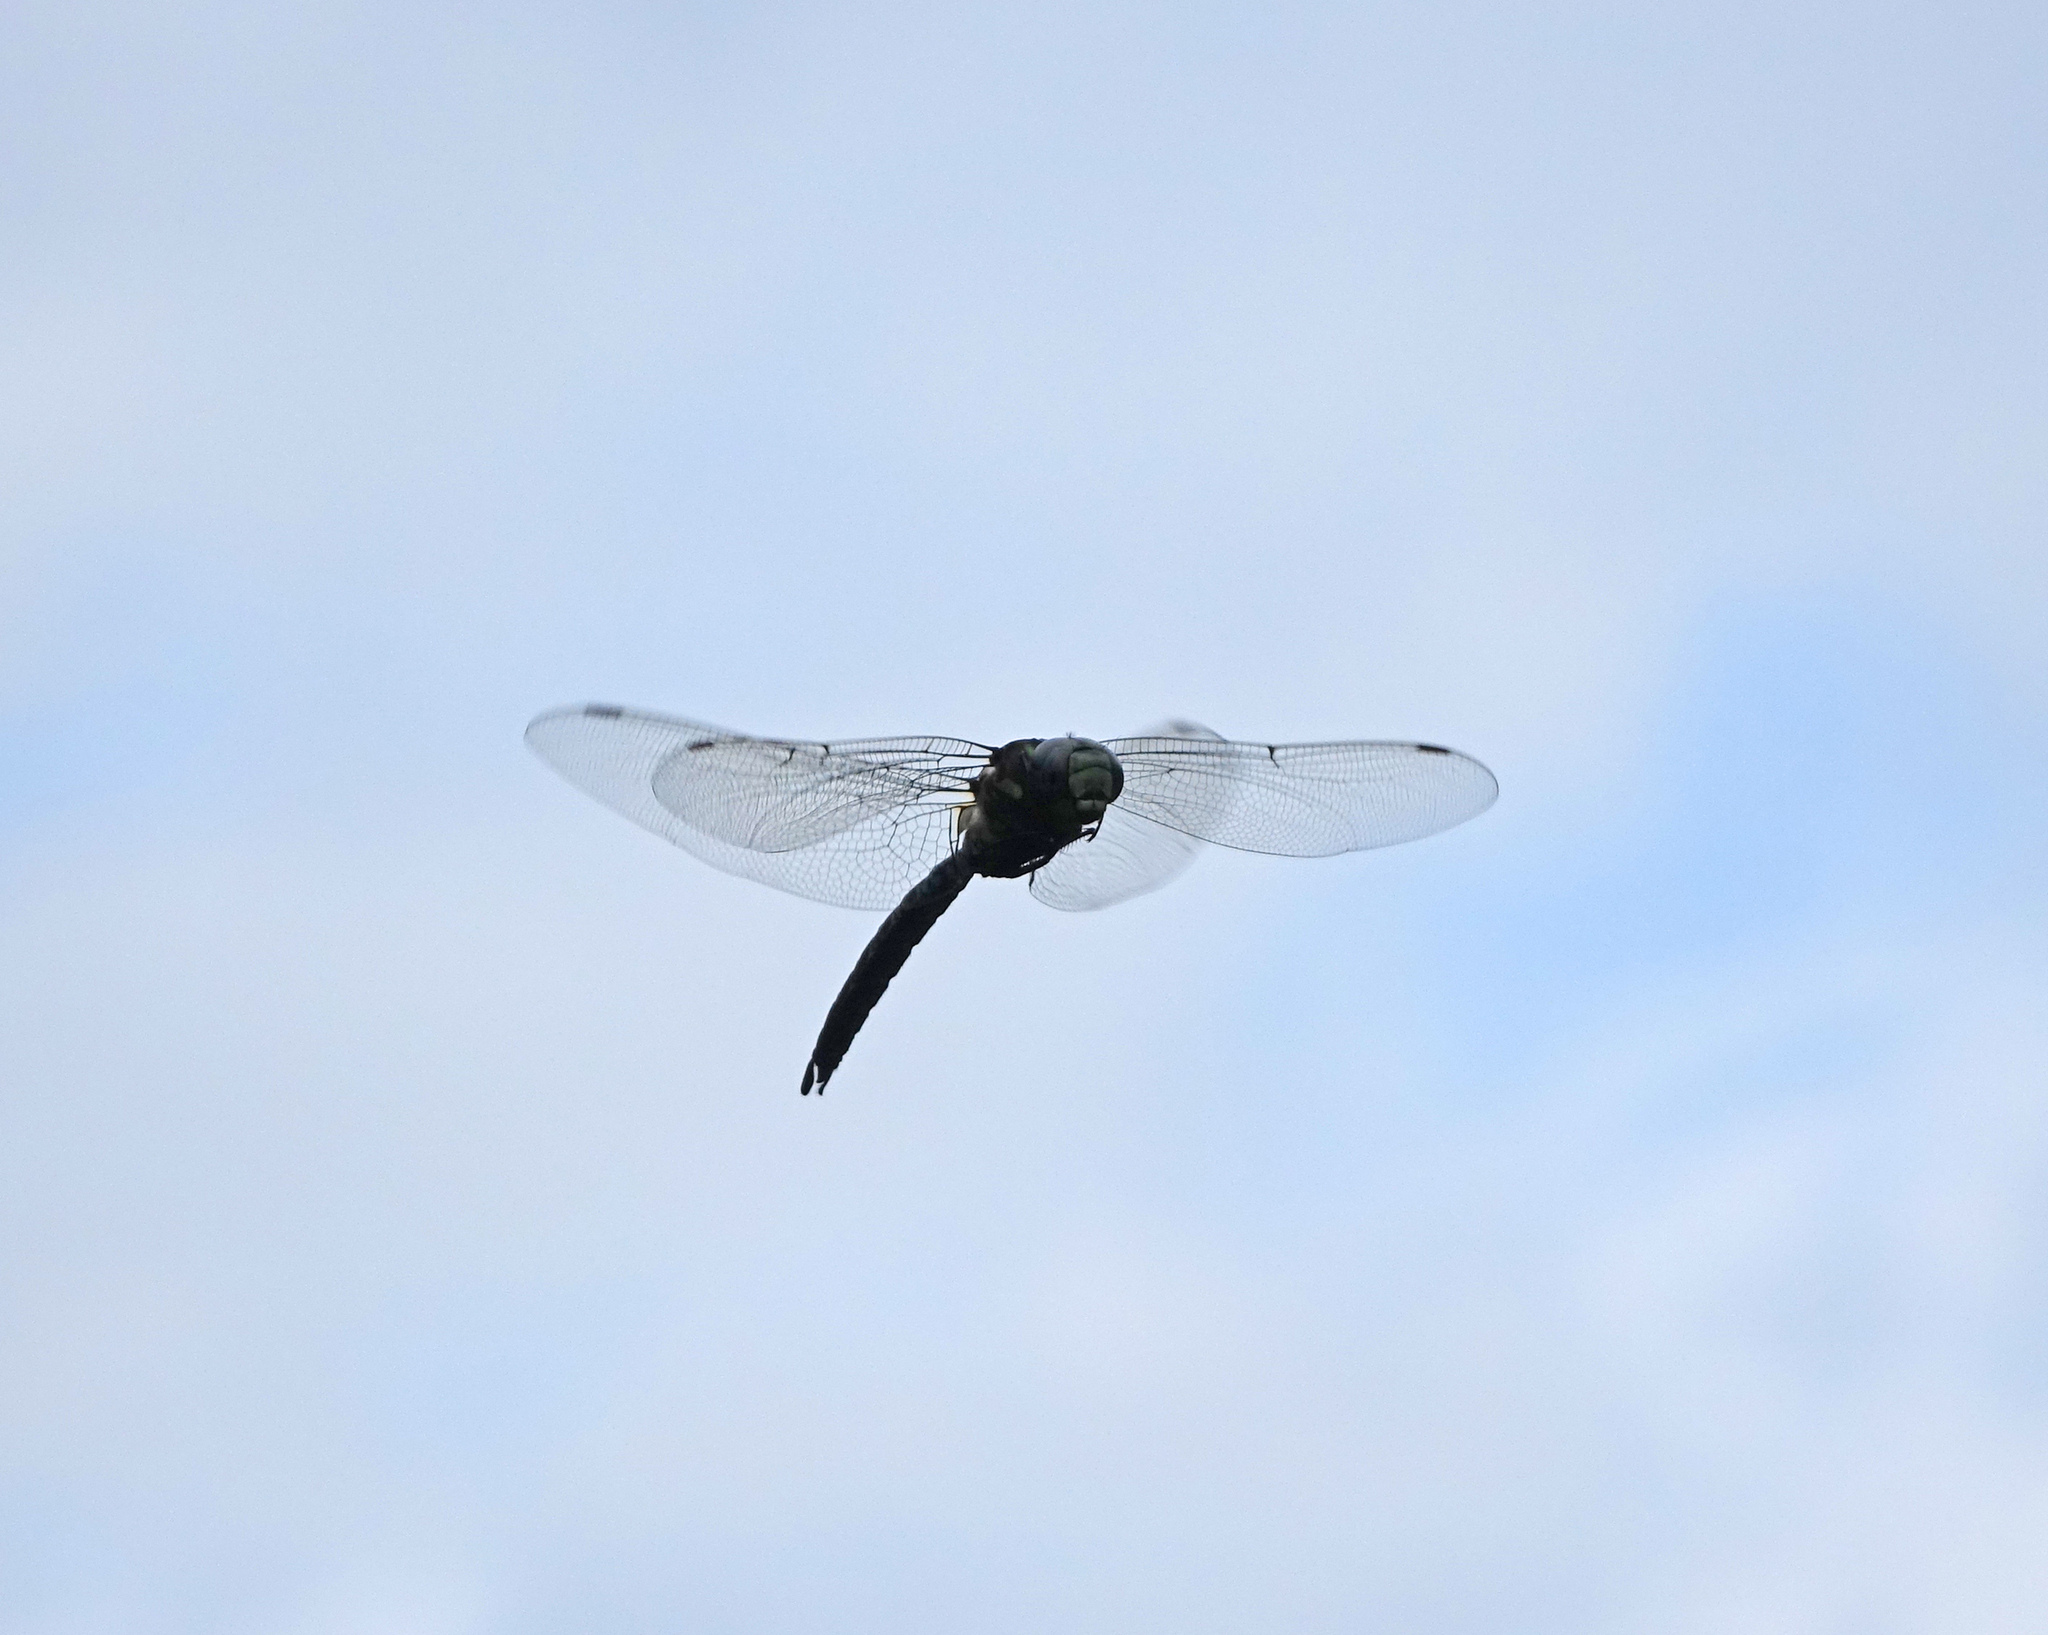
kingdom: Animalia
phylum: Arthropoda
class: Insecta
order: Odonata
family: Aeshnidae
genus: Aeshna
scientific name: Aeshna crenata
